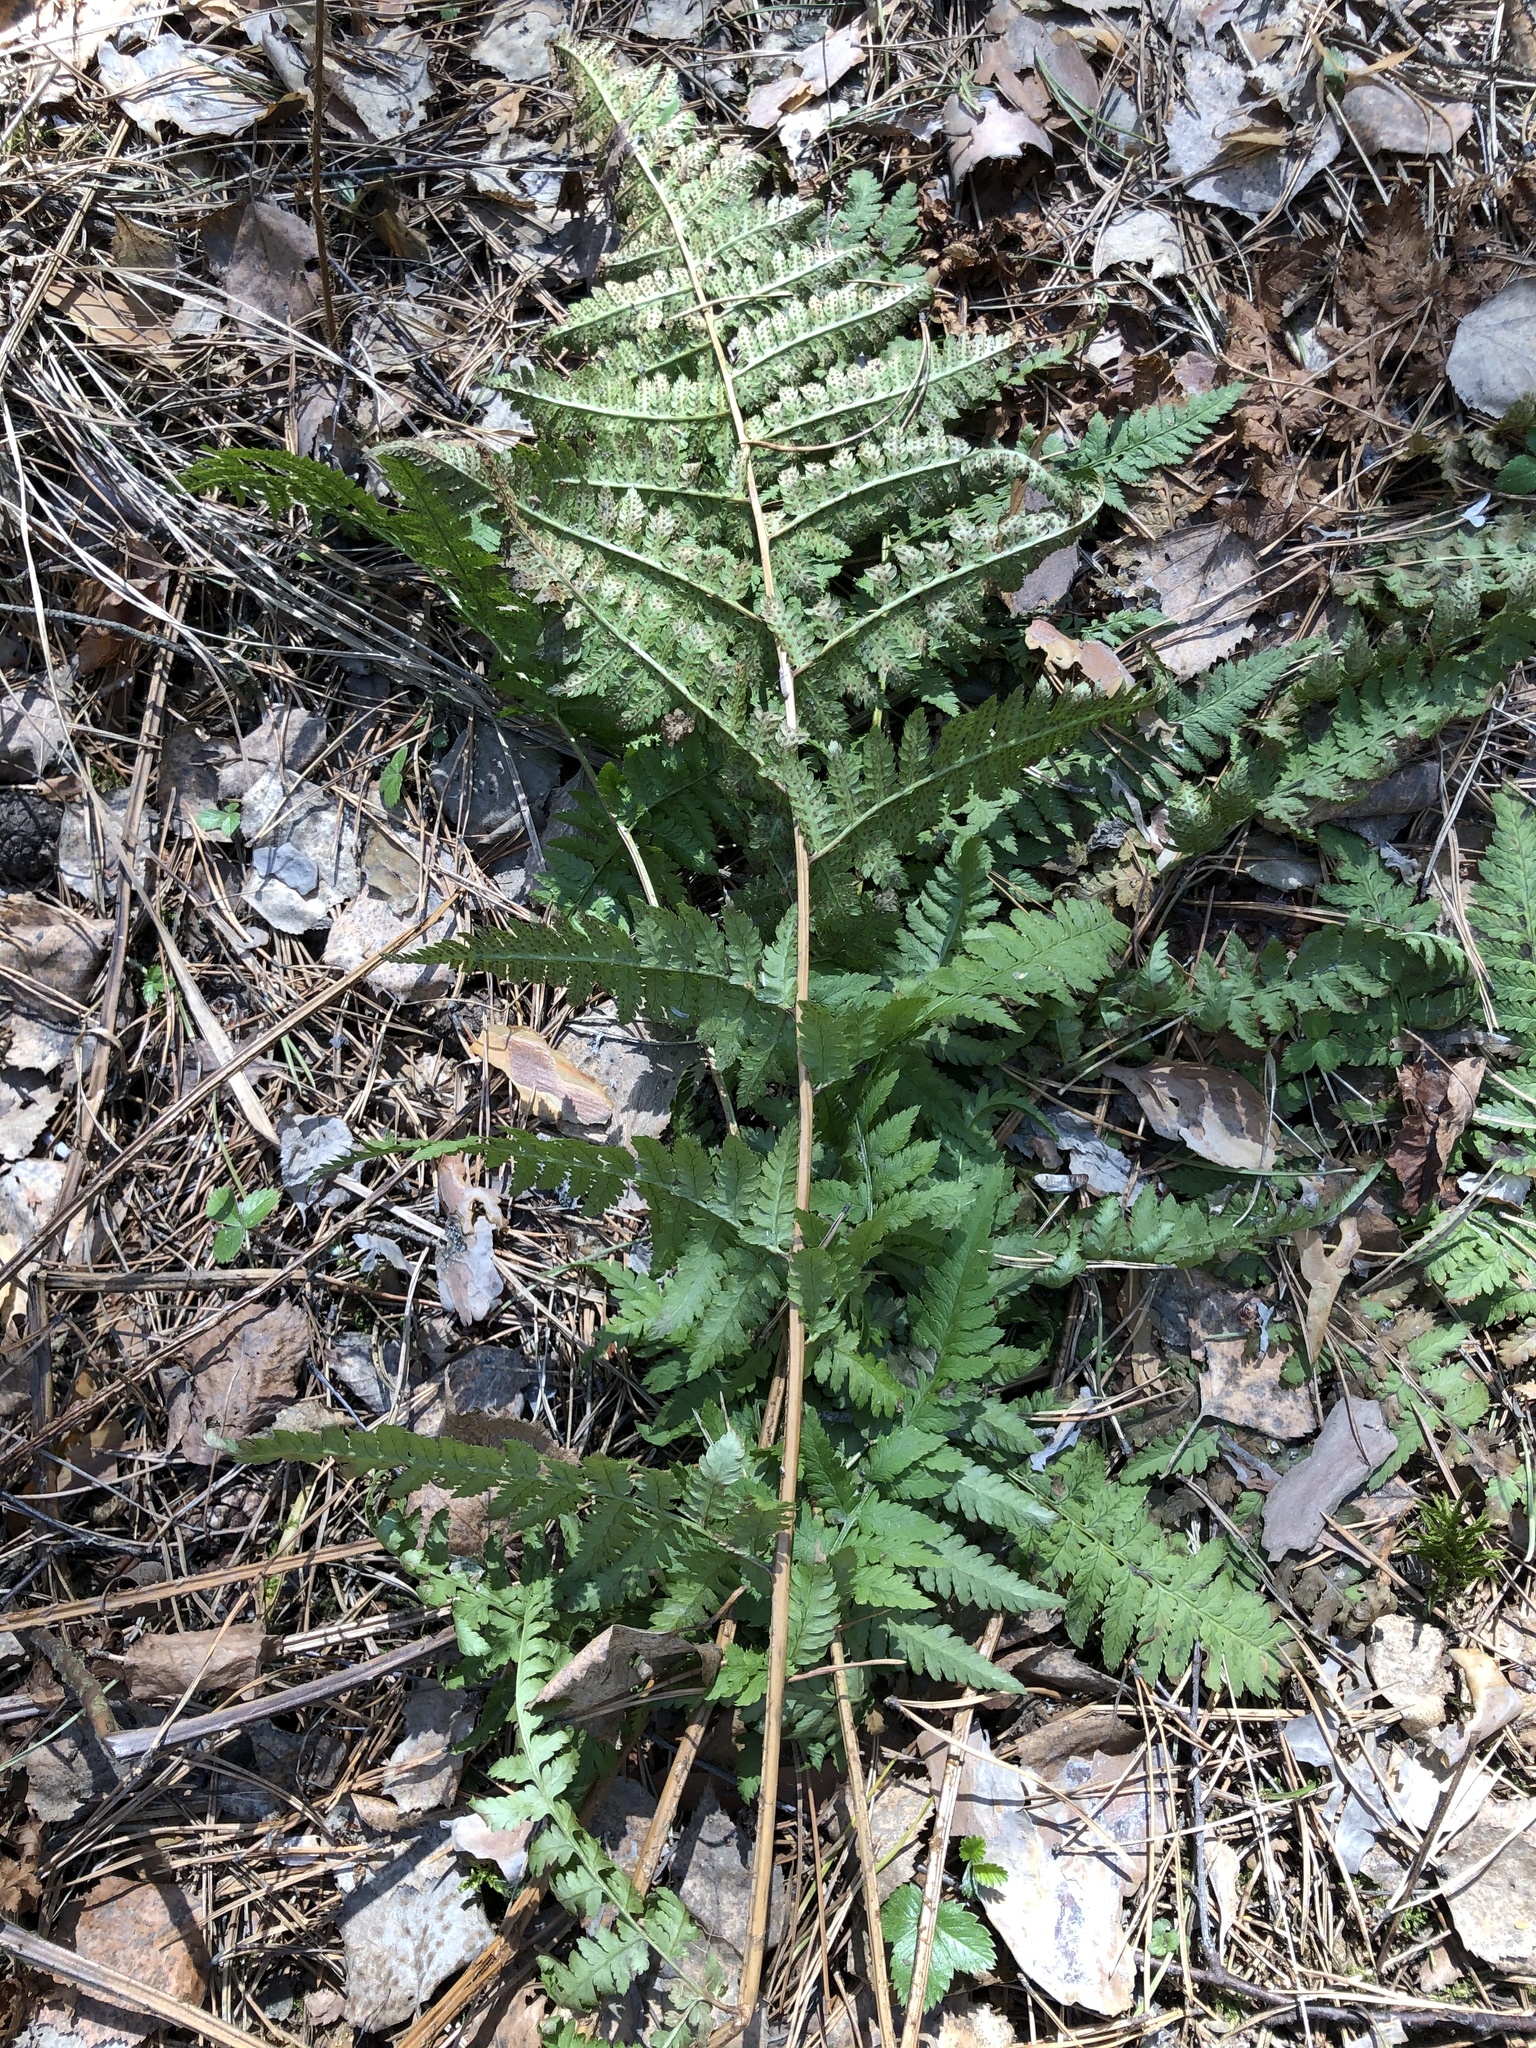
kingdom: Plantae
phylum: Tracheophyta
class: Polypodiopsida
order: Polypodiales
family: Dryopteridaceae
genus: Dryopteris
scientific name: Dryopteris carthusiana
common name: Narrow buckler-fern
